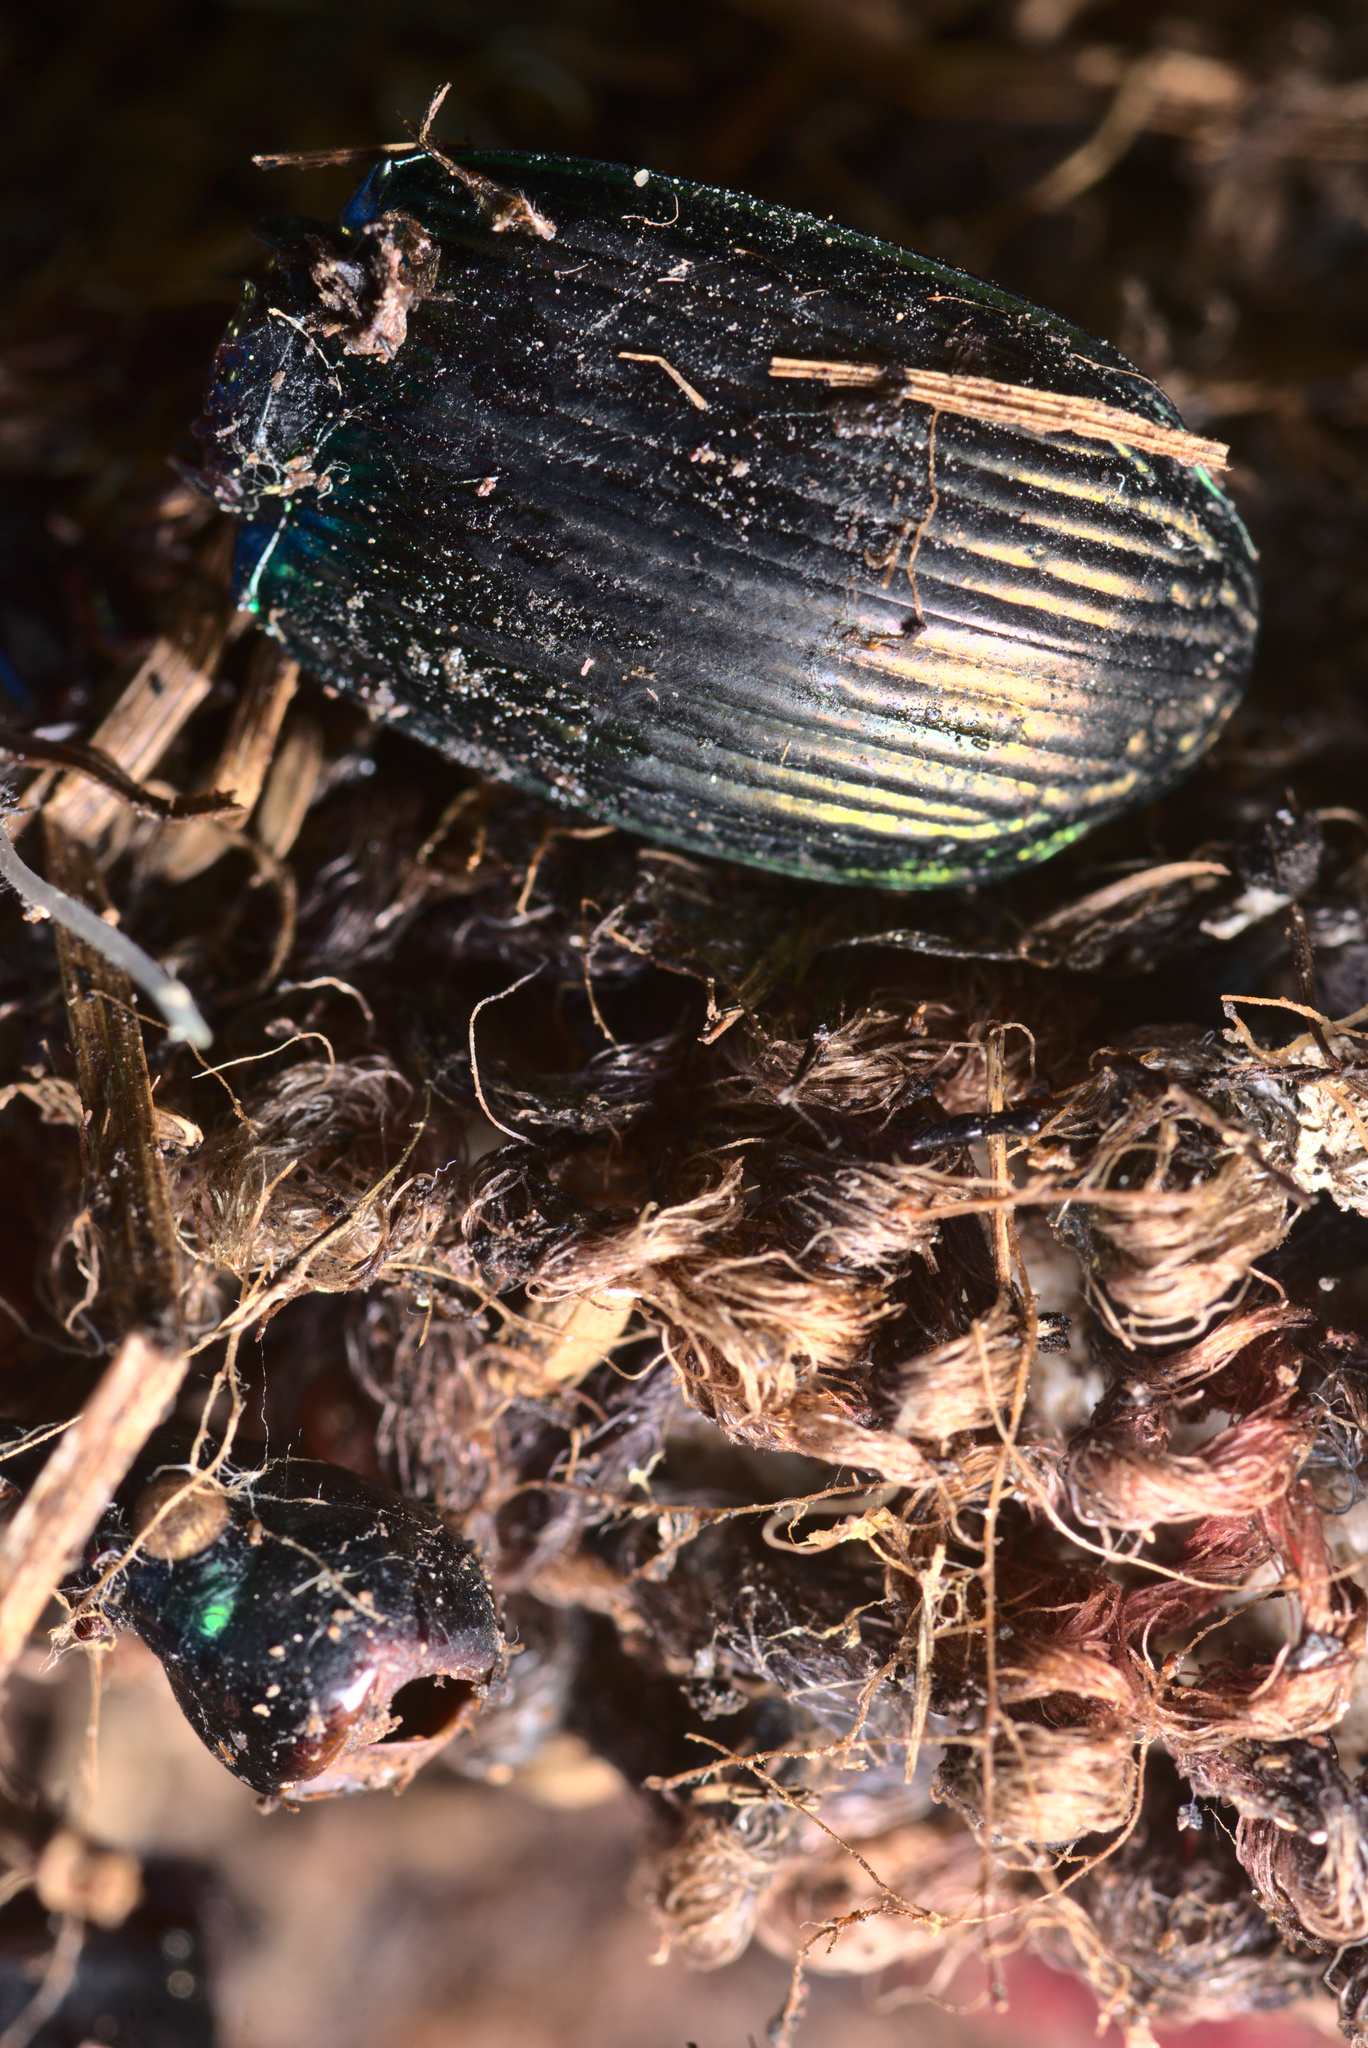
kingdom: Animalia
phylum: Arthropoda
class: Insecta
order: Coleoptera
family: Carabidae
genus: Megadromus
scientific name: Megadromus antarcticus
